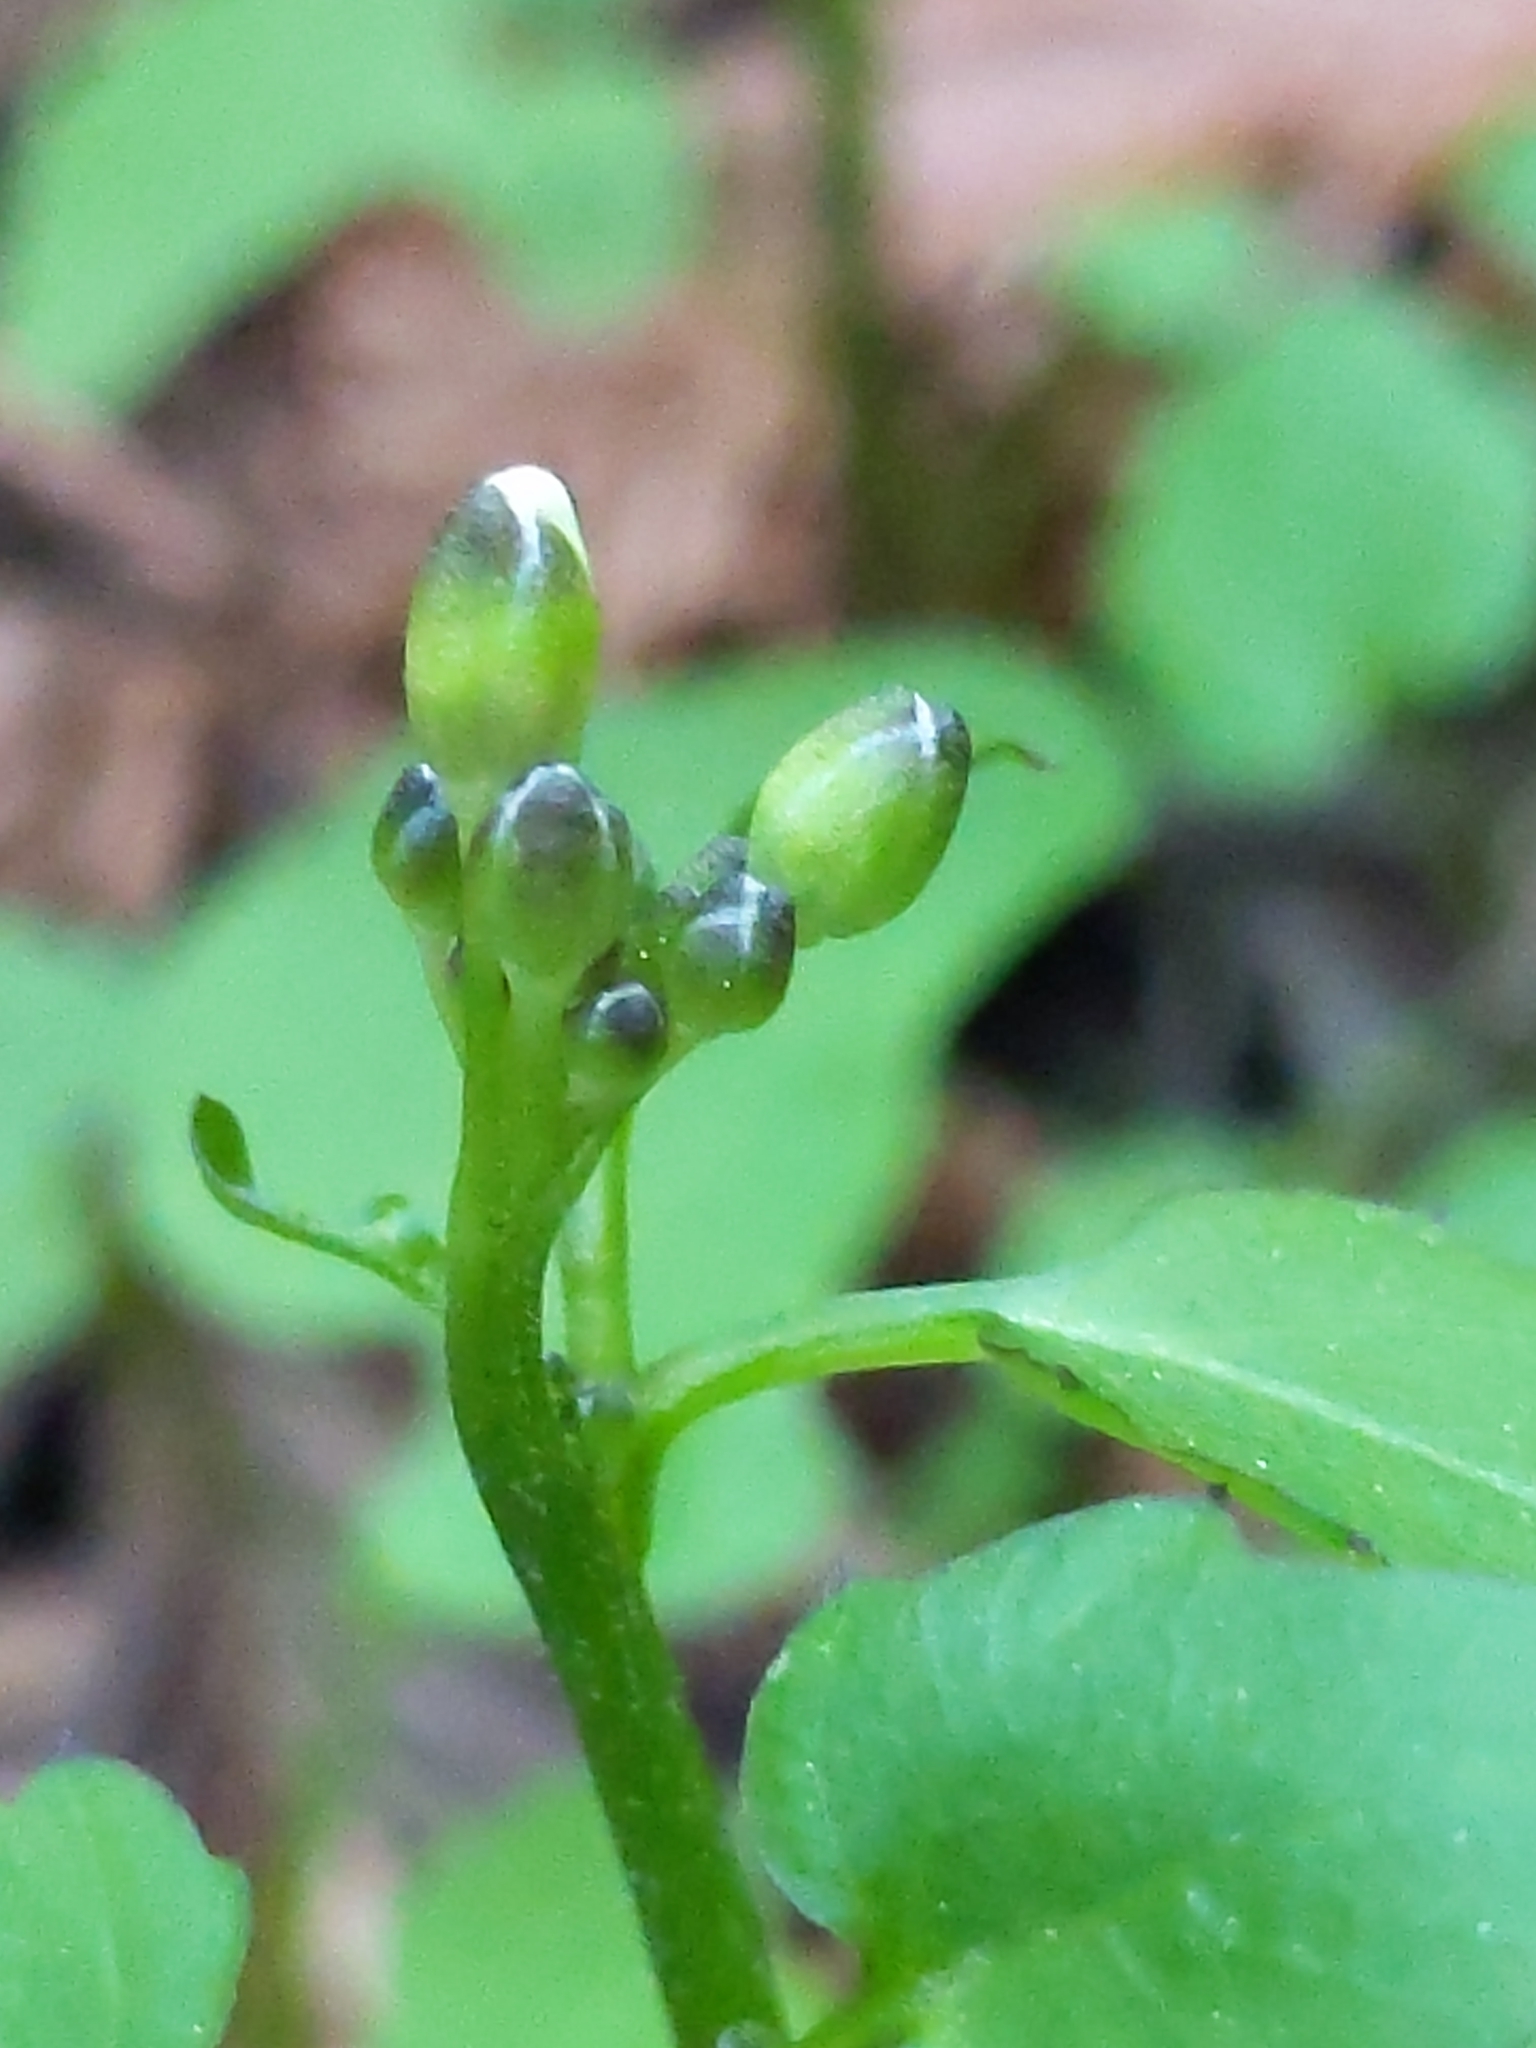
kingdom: Plantae
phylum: Tracheophyta
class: Magnoliopsida
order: Brassicales
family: Brassicaceae
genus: Cardamine
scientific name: Cardamine californica
